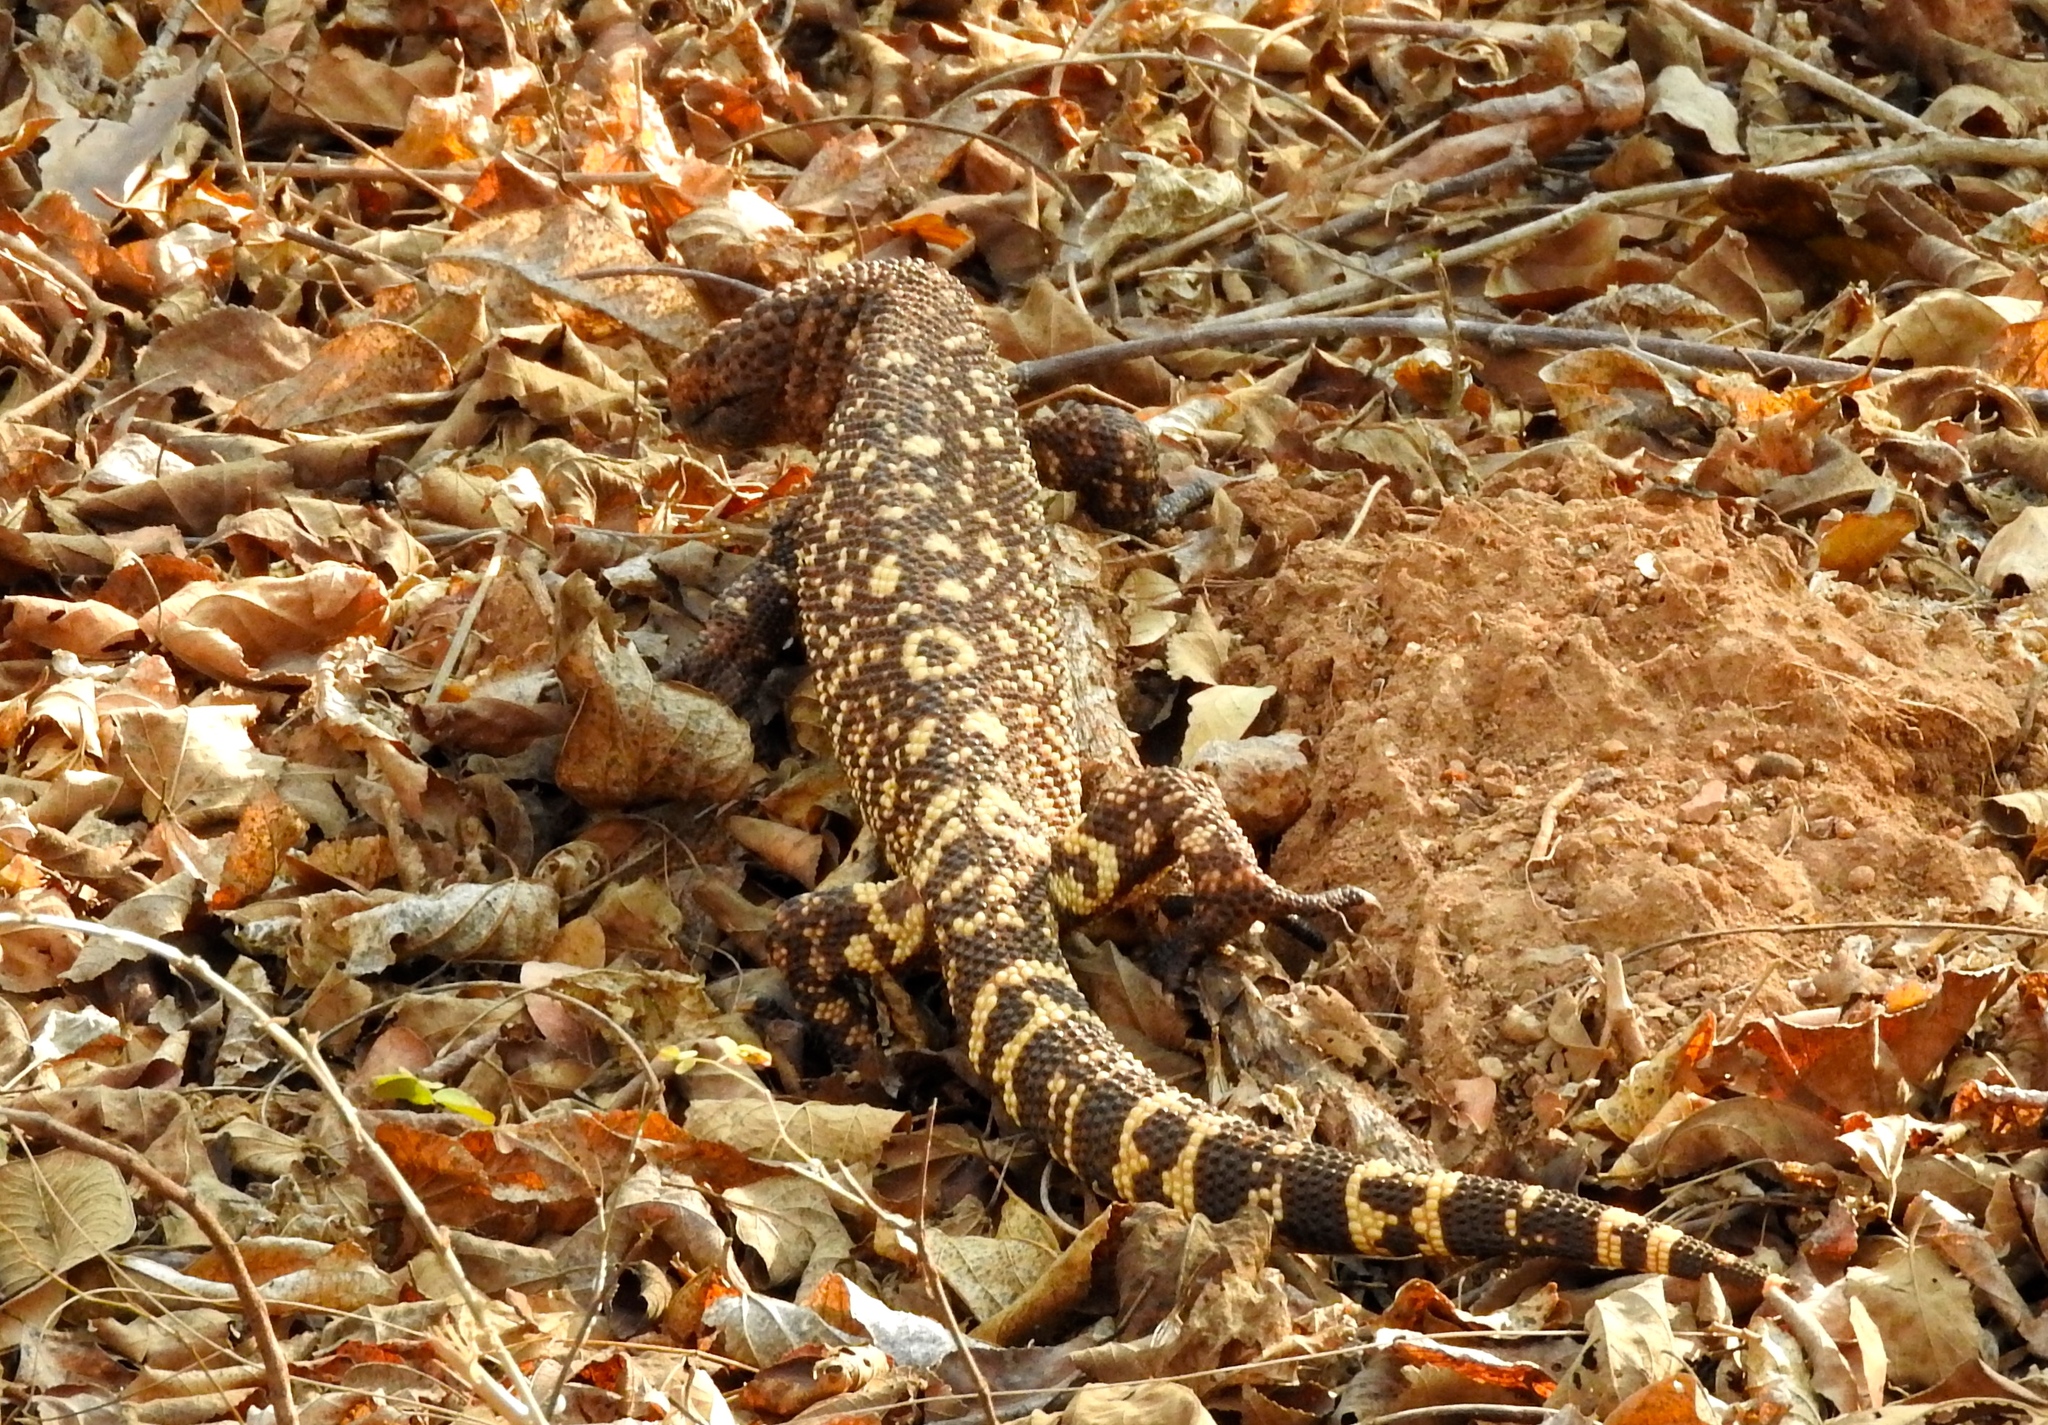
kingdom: Animalia
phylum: Chordata
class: Squamata
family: Helodermatidae
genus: Heloderma
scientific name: Heloderma horridum
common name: Mexican beaded lizard
